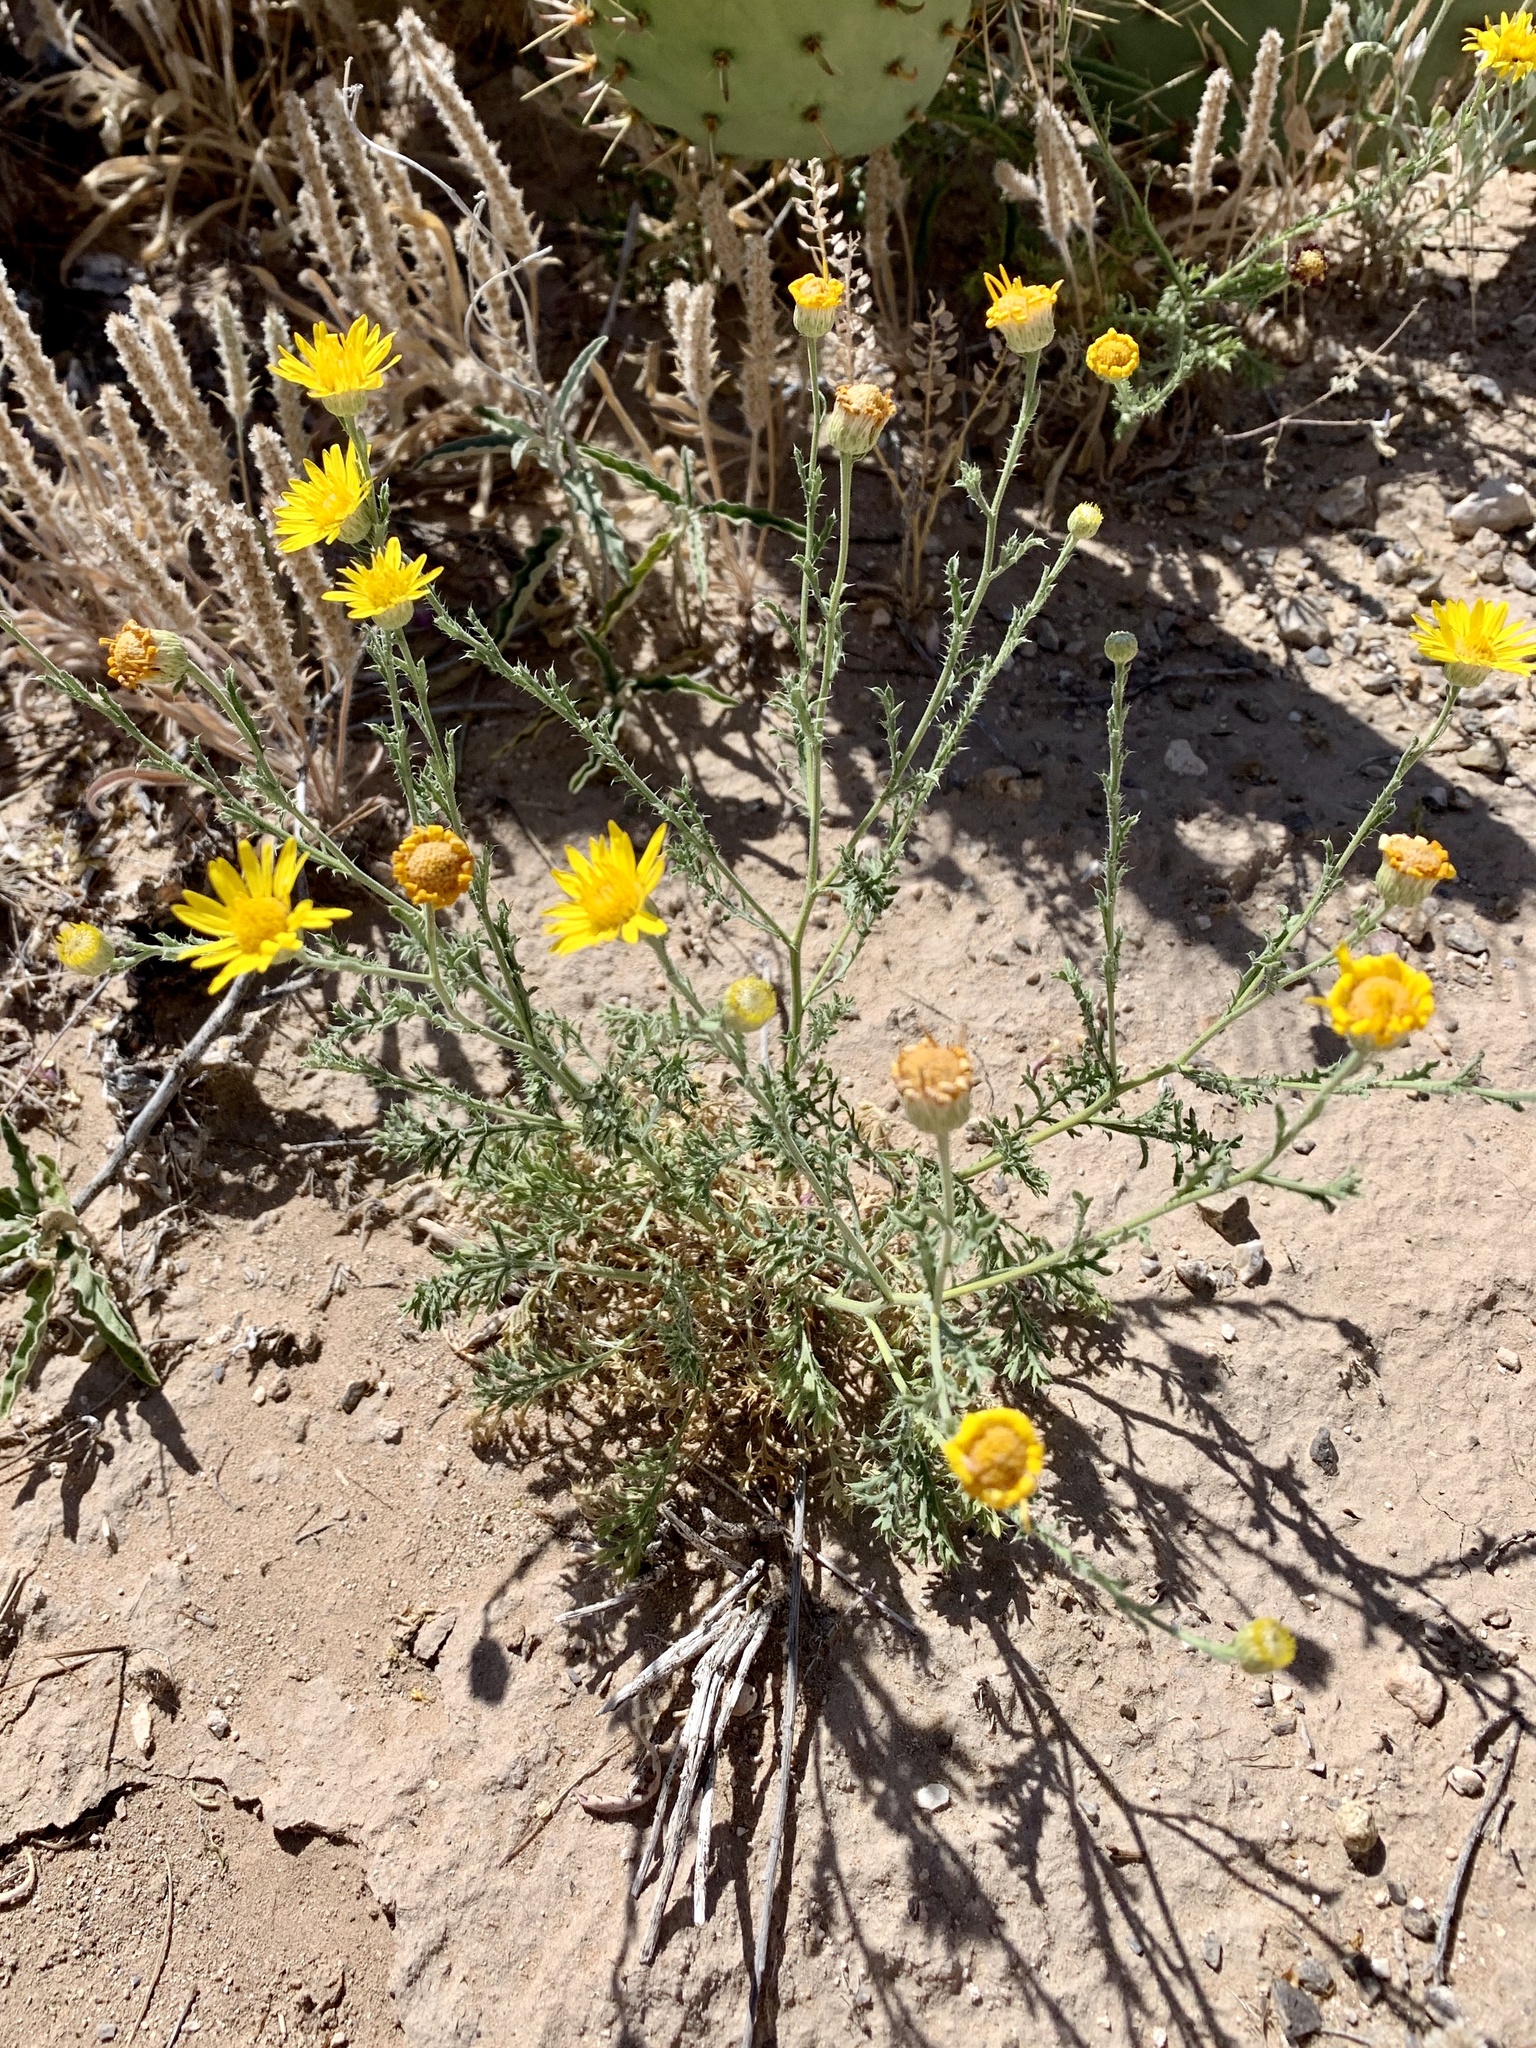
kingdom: Plantae
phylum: Tracheophyta
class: Magnoliopsida
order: Asterales
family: Asteraceae
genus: Xanthisma
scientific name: Xanthisma spinulosum
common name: Spiny goldenweed
